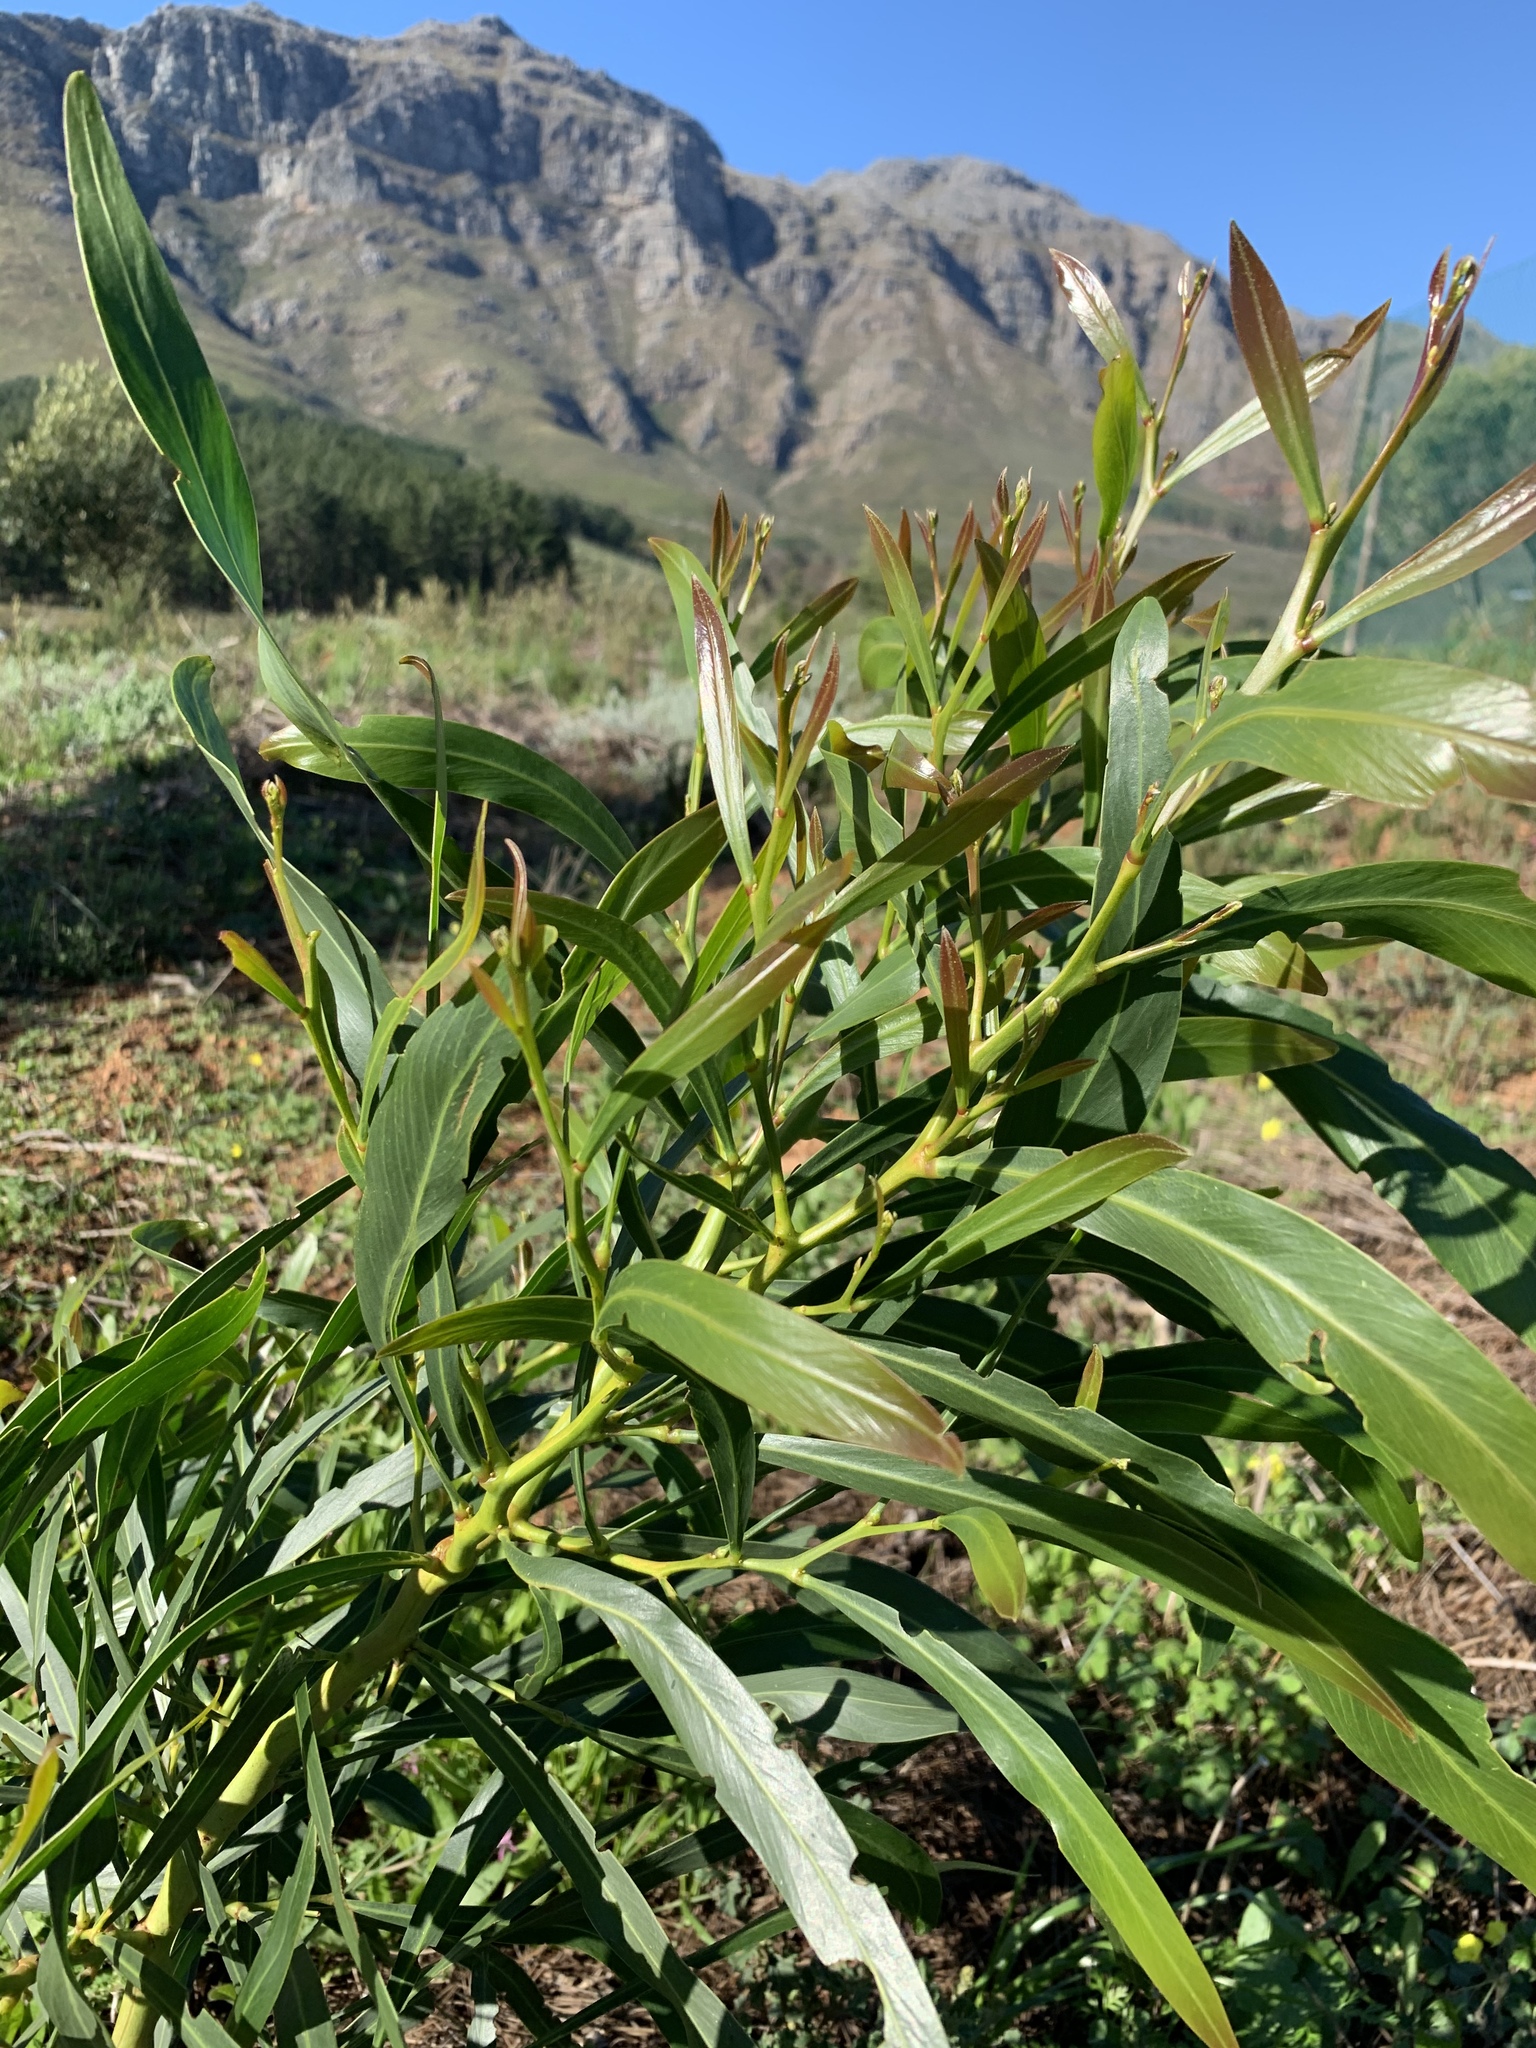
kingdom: Plantae
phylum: Tracheophyta
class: Magnoliopsida
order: Fabales
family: Fabaceae
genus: Acacia
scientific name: Acacia saligna
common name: Orange wattle
